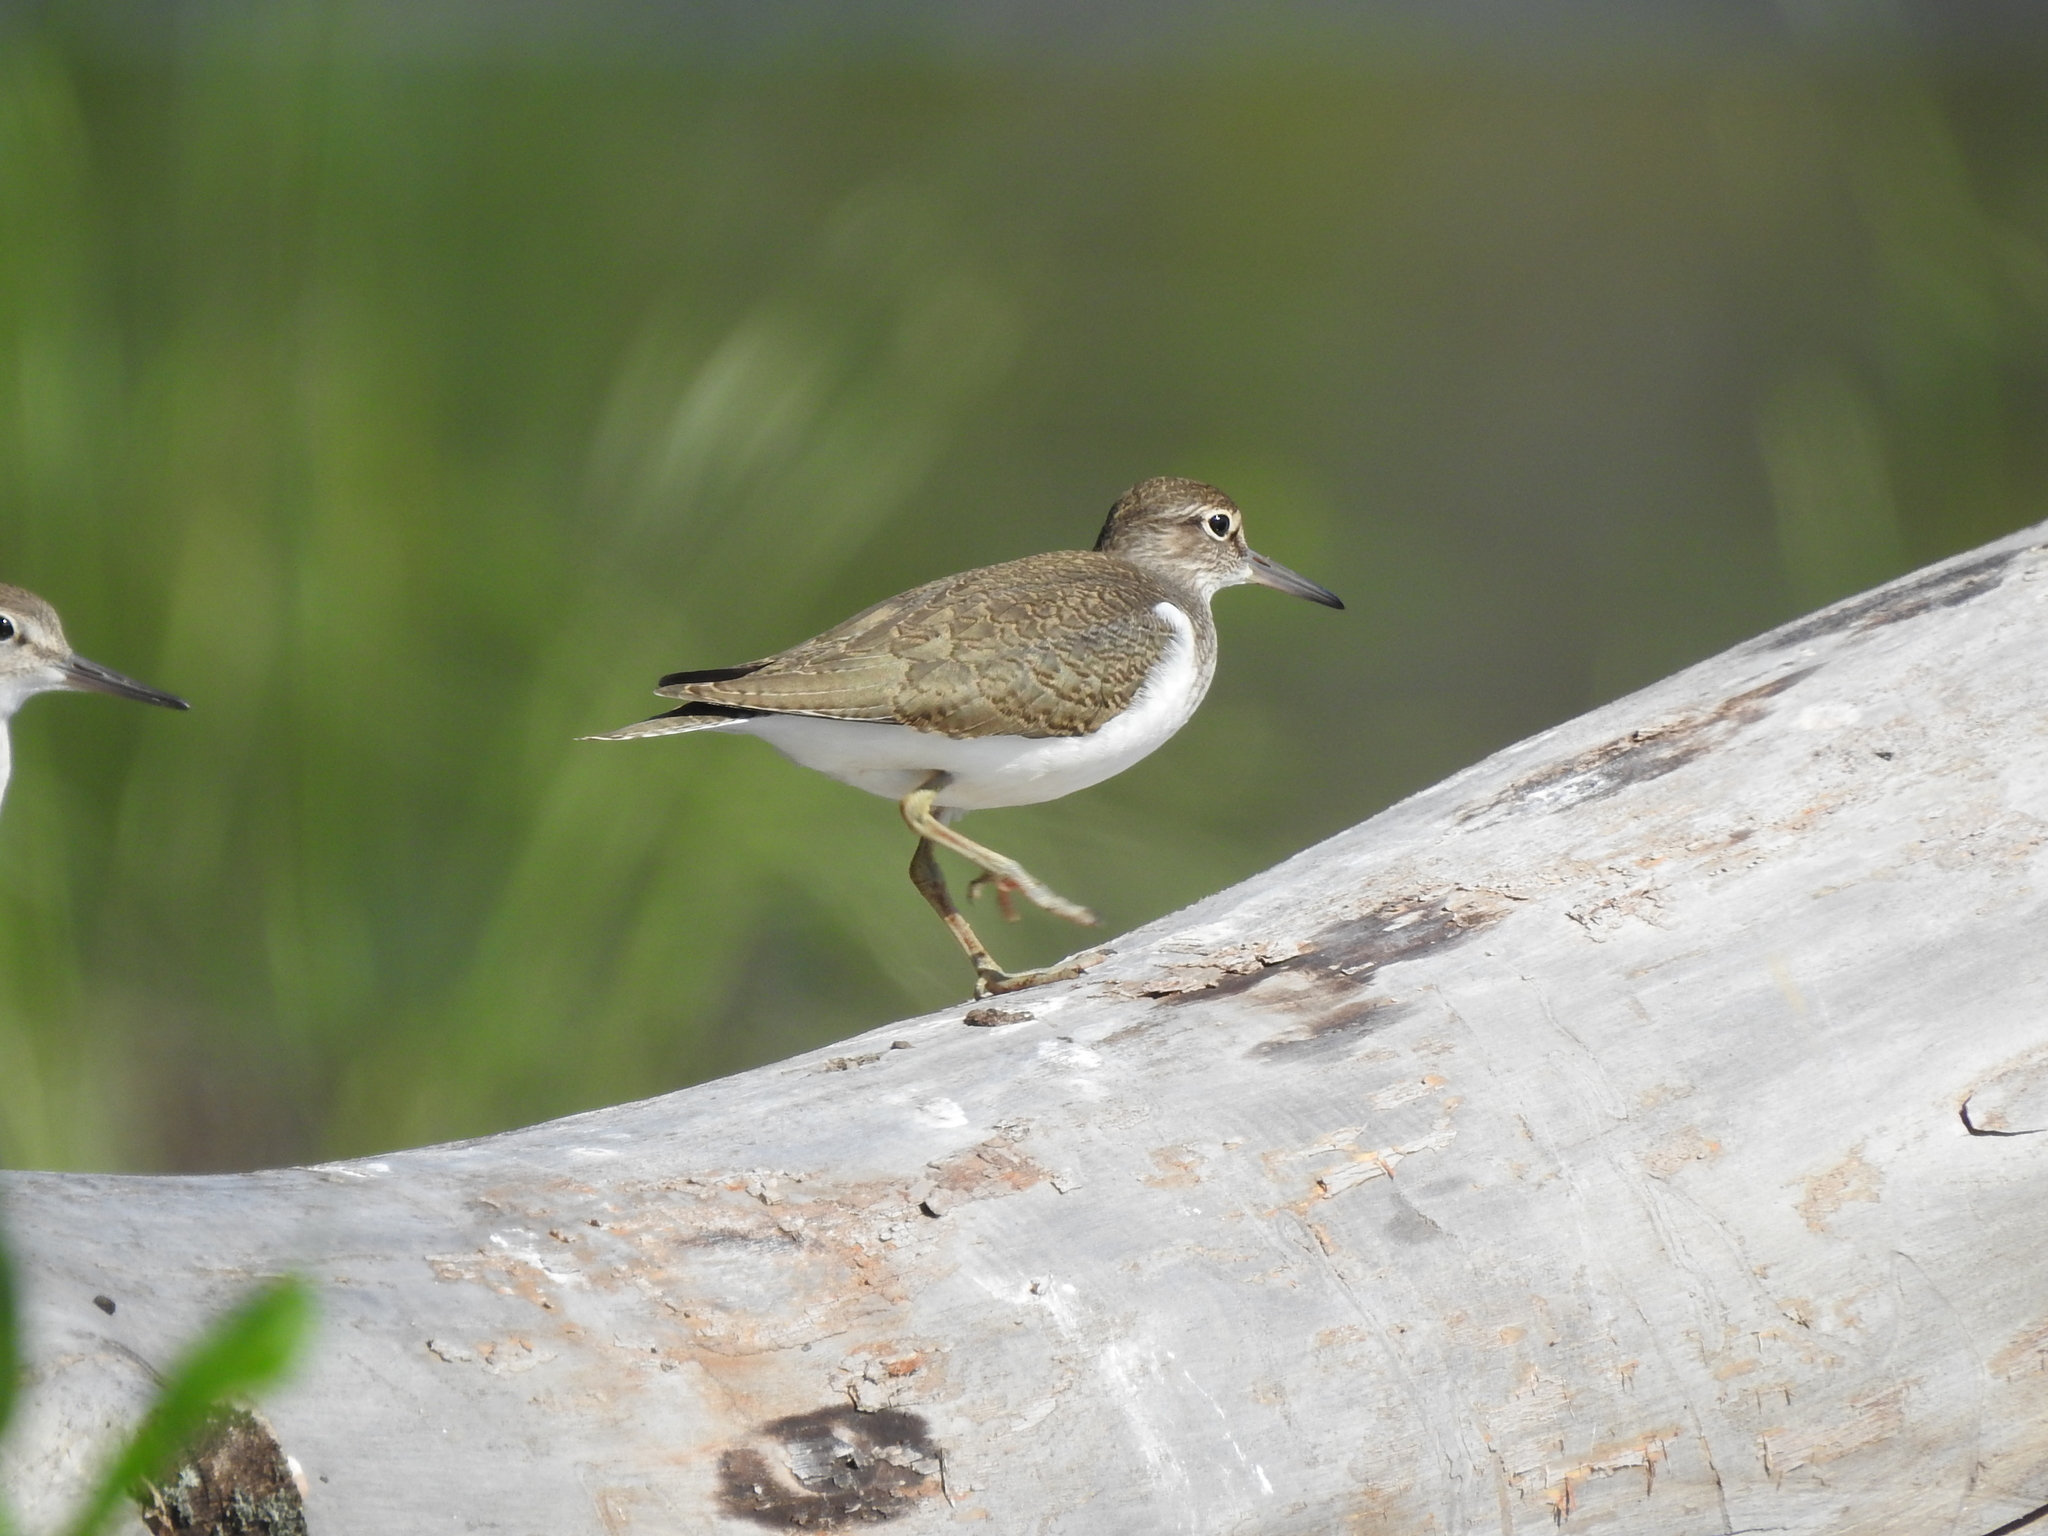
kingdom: Animalia
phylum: Chordata
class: Aves
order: Charadriiformes
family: Scolopacidae
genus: Actitis
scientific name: Actitis hypoleucos
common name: Common sandpiper
